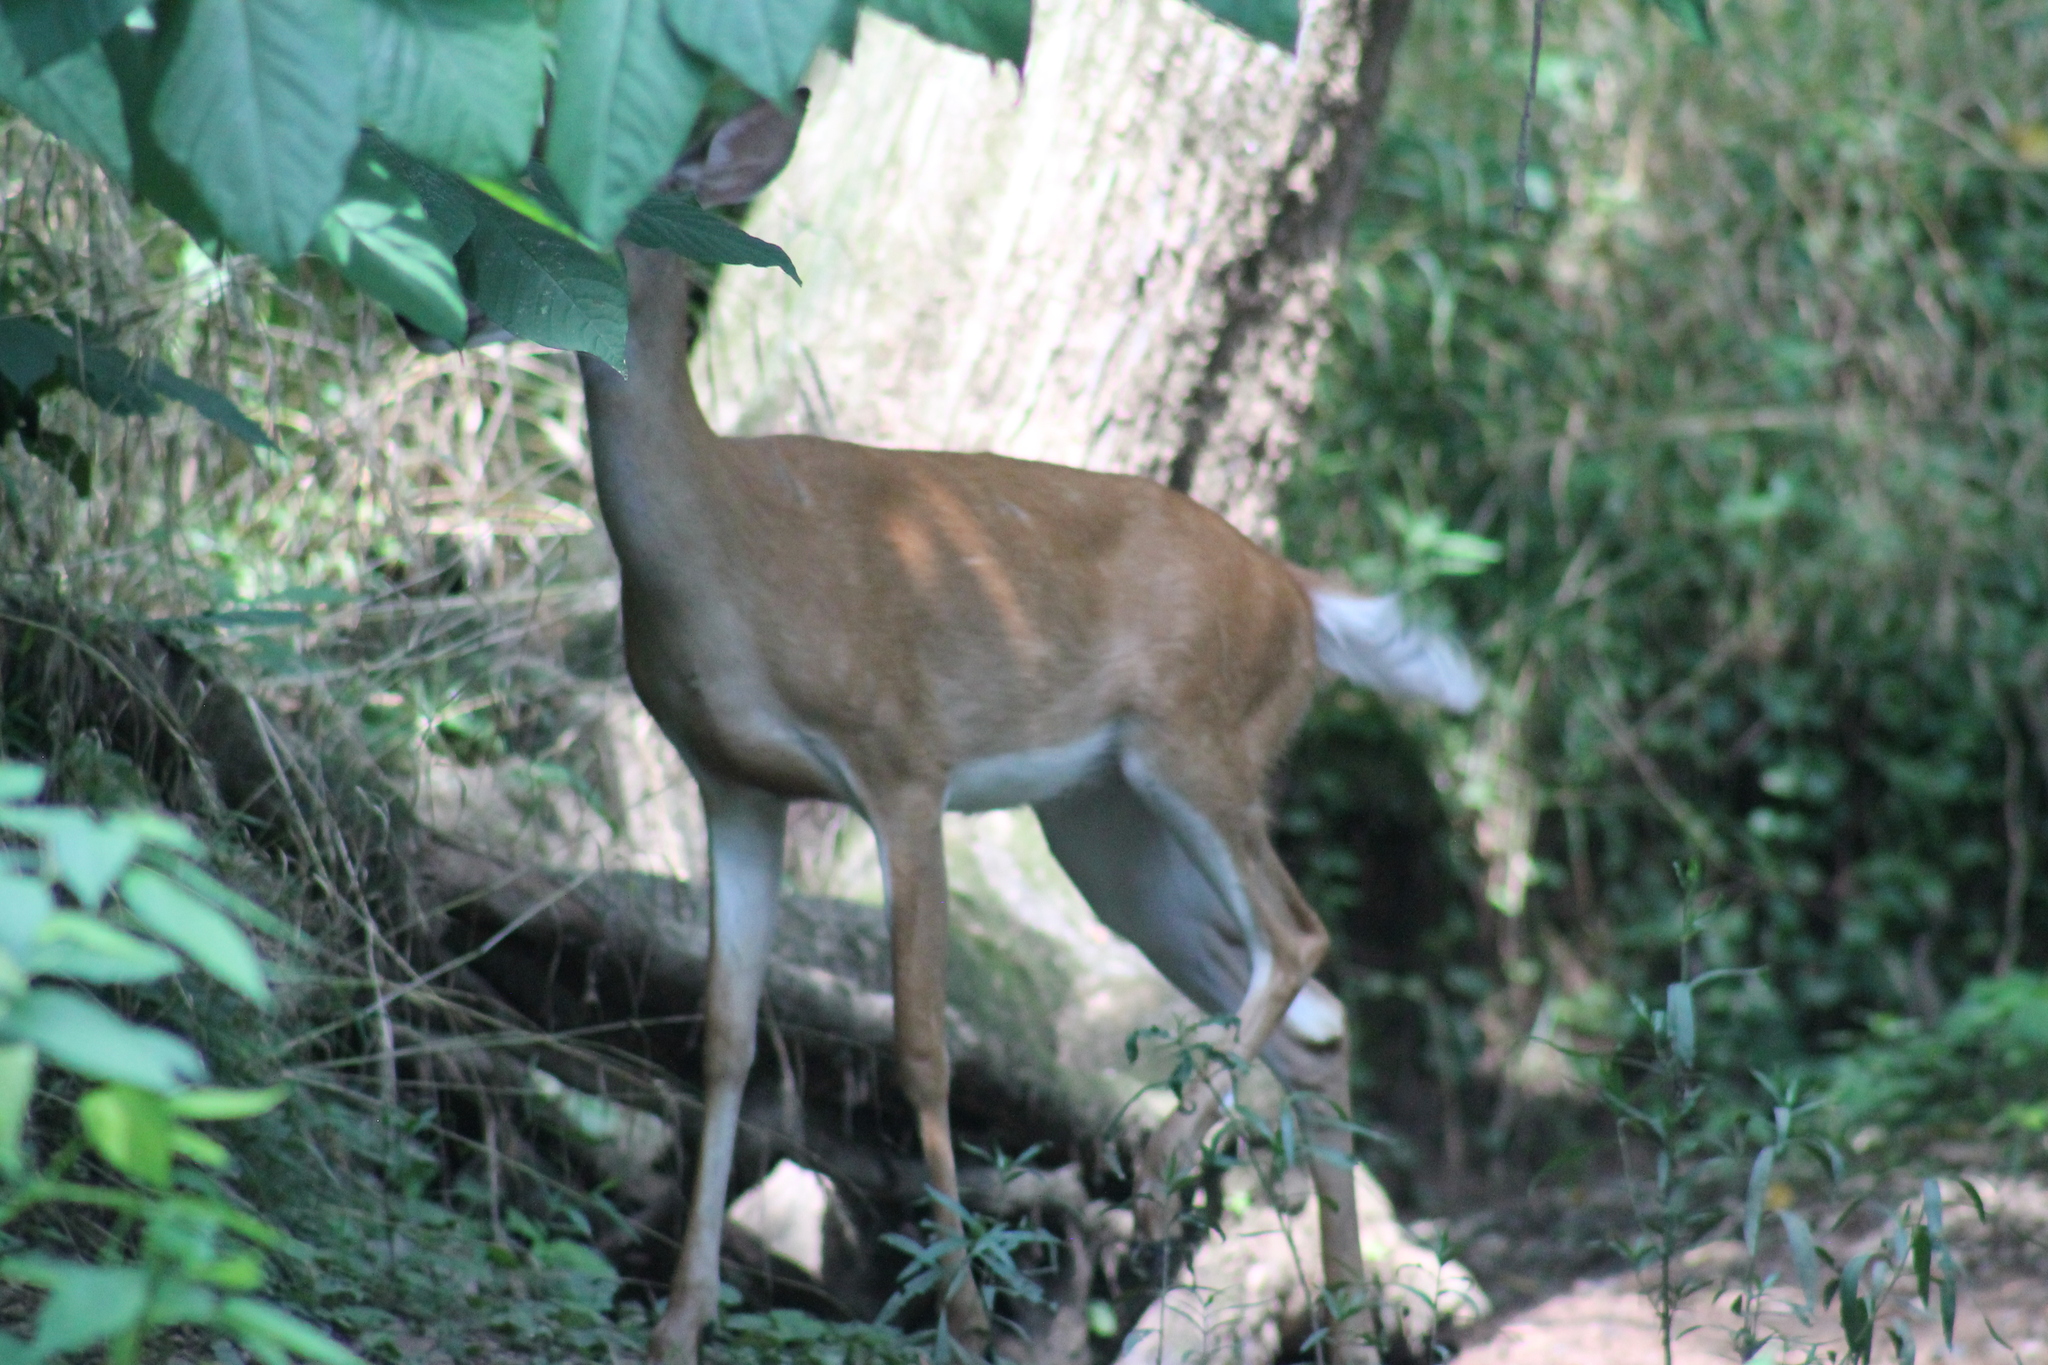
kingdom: Animalia
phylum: Chordata
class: Mammalia
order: Artiodactyla
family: Cervidae
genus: Odocoileus
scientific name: Odocoileus virginianus
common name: White-tailed deer
